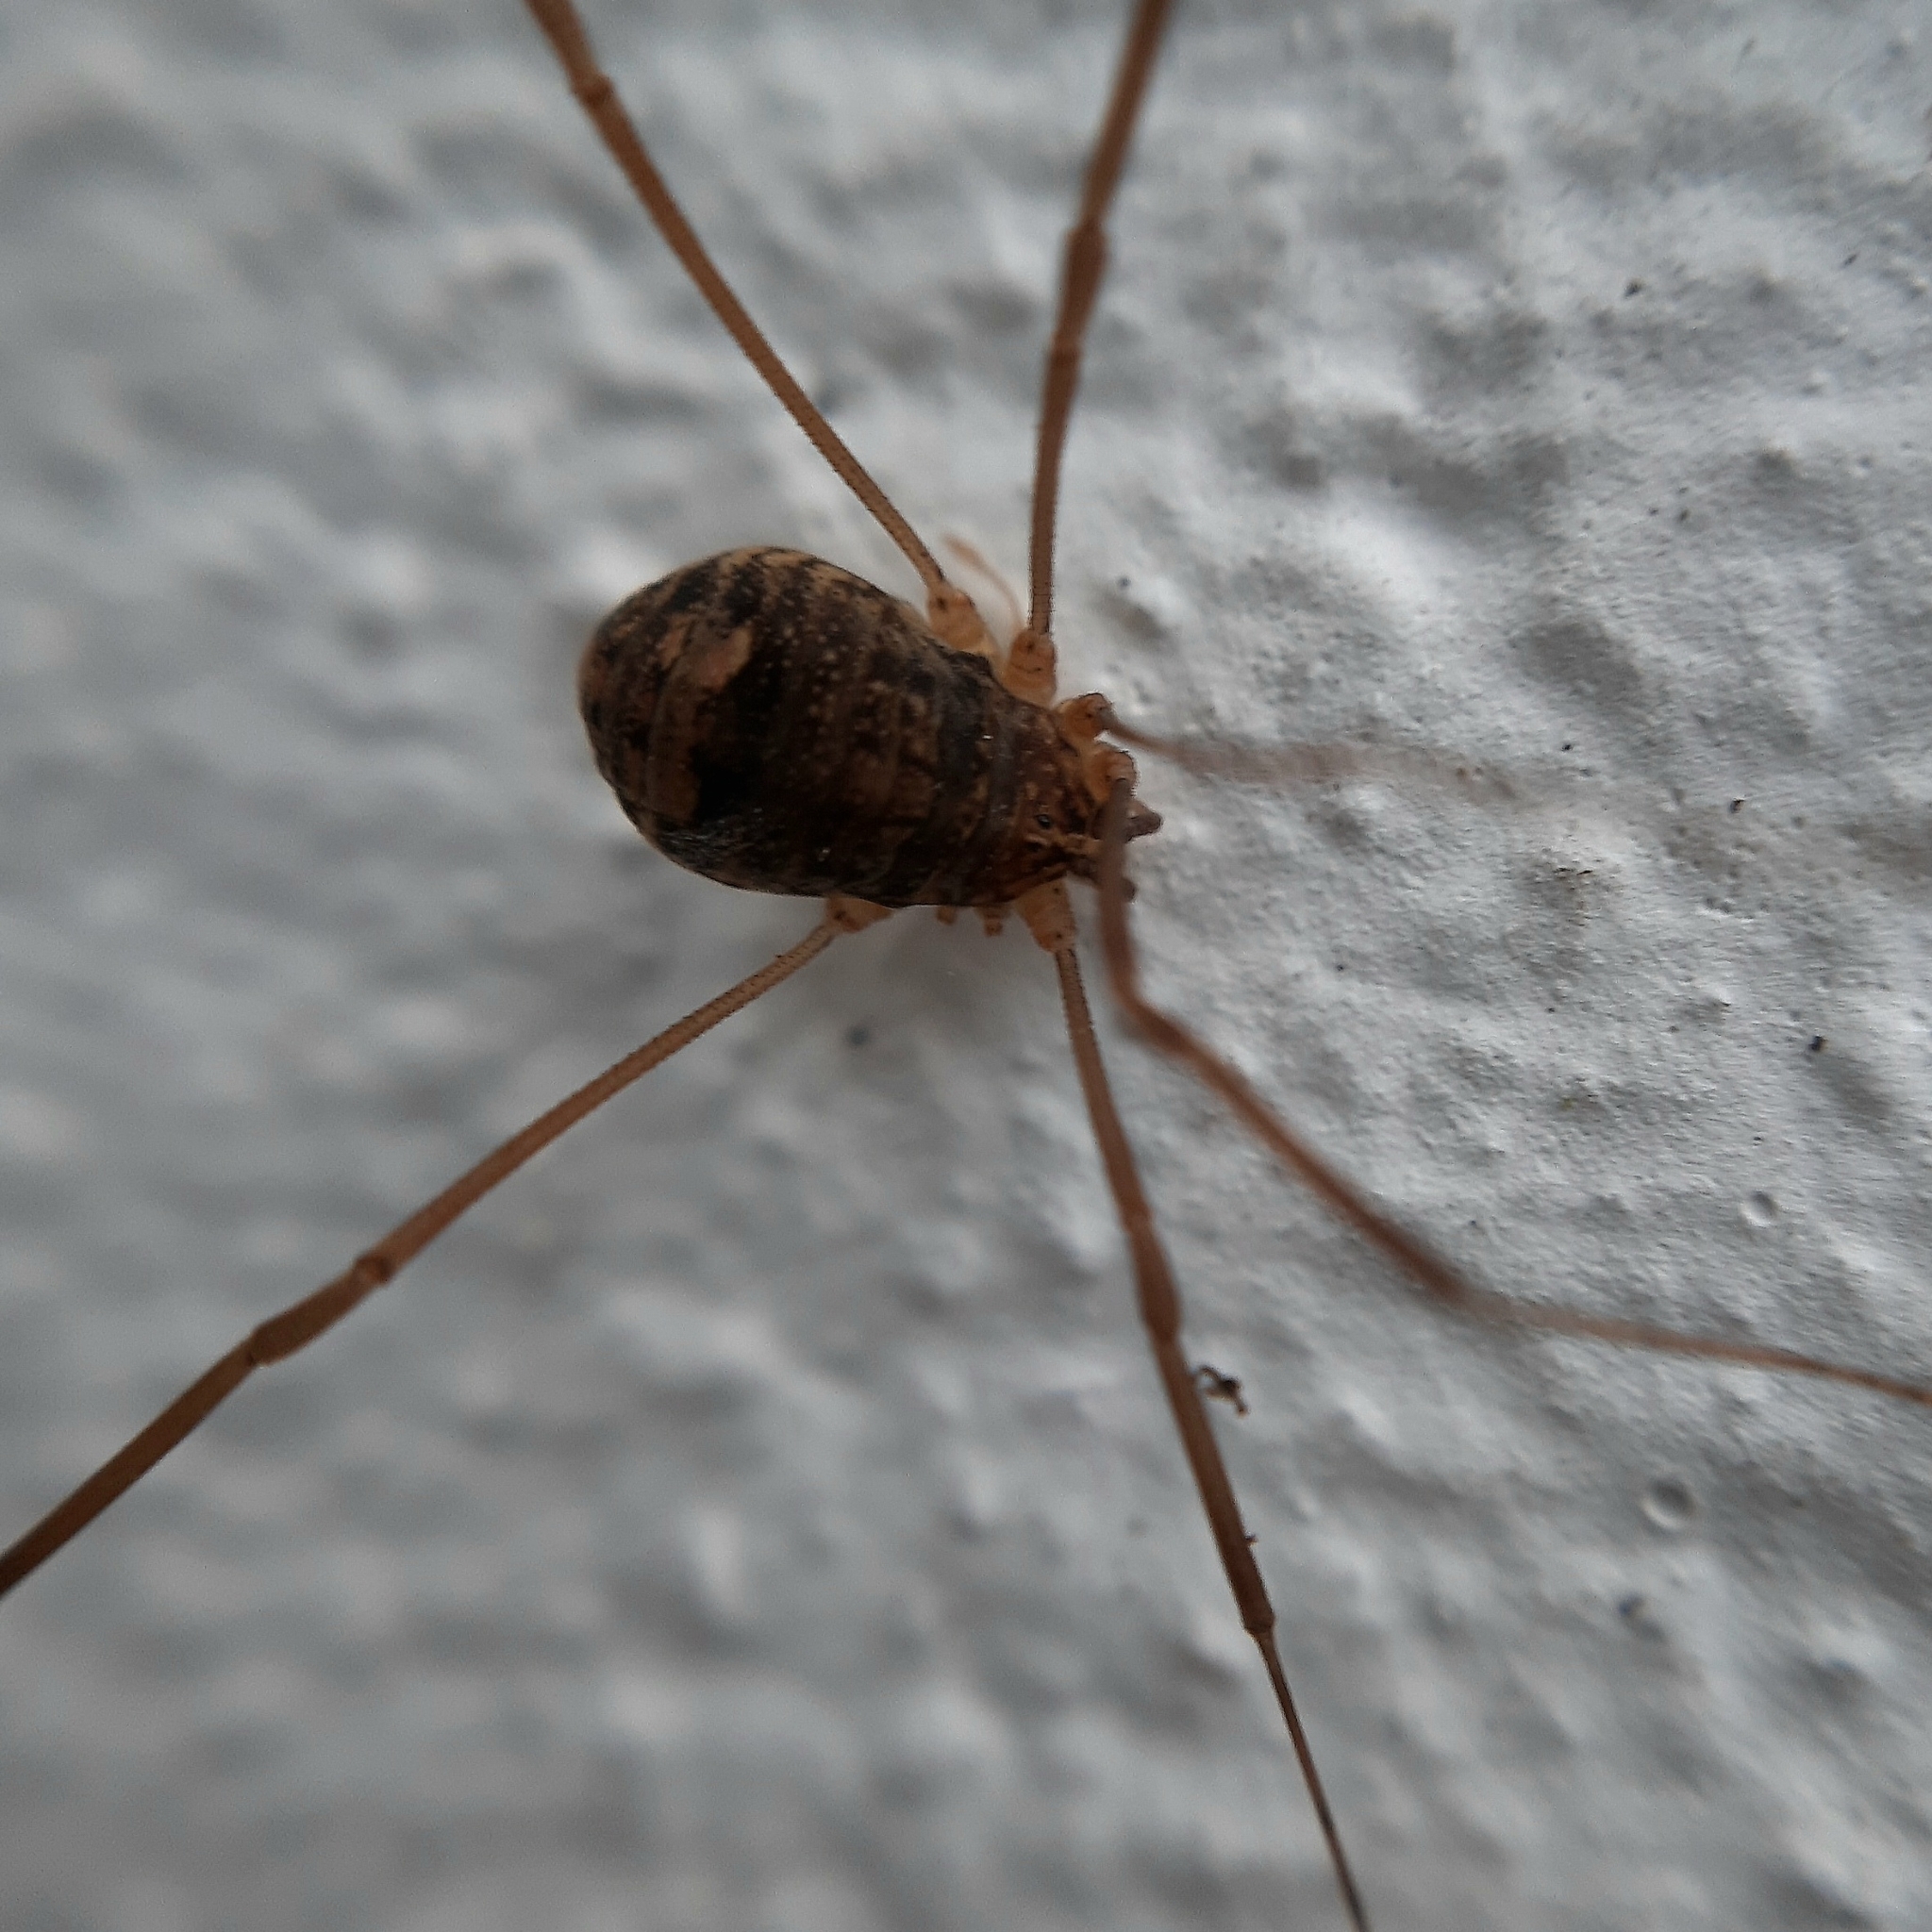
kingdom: Animalia
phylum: Arthropoda
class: Arachnida
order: Opiliones
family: Sclerosomatidae
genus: Nelima
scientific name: Nelima
